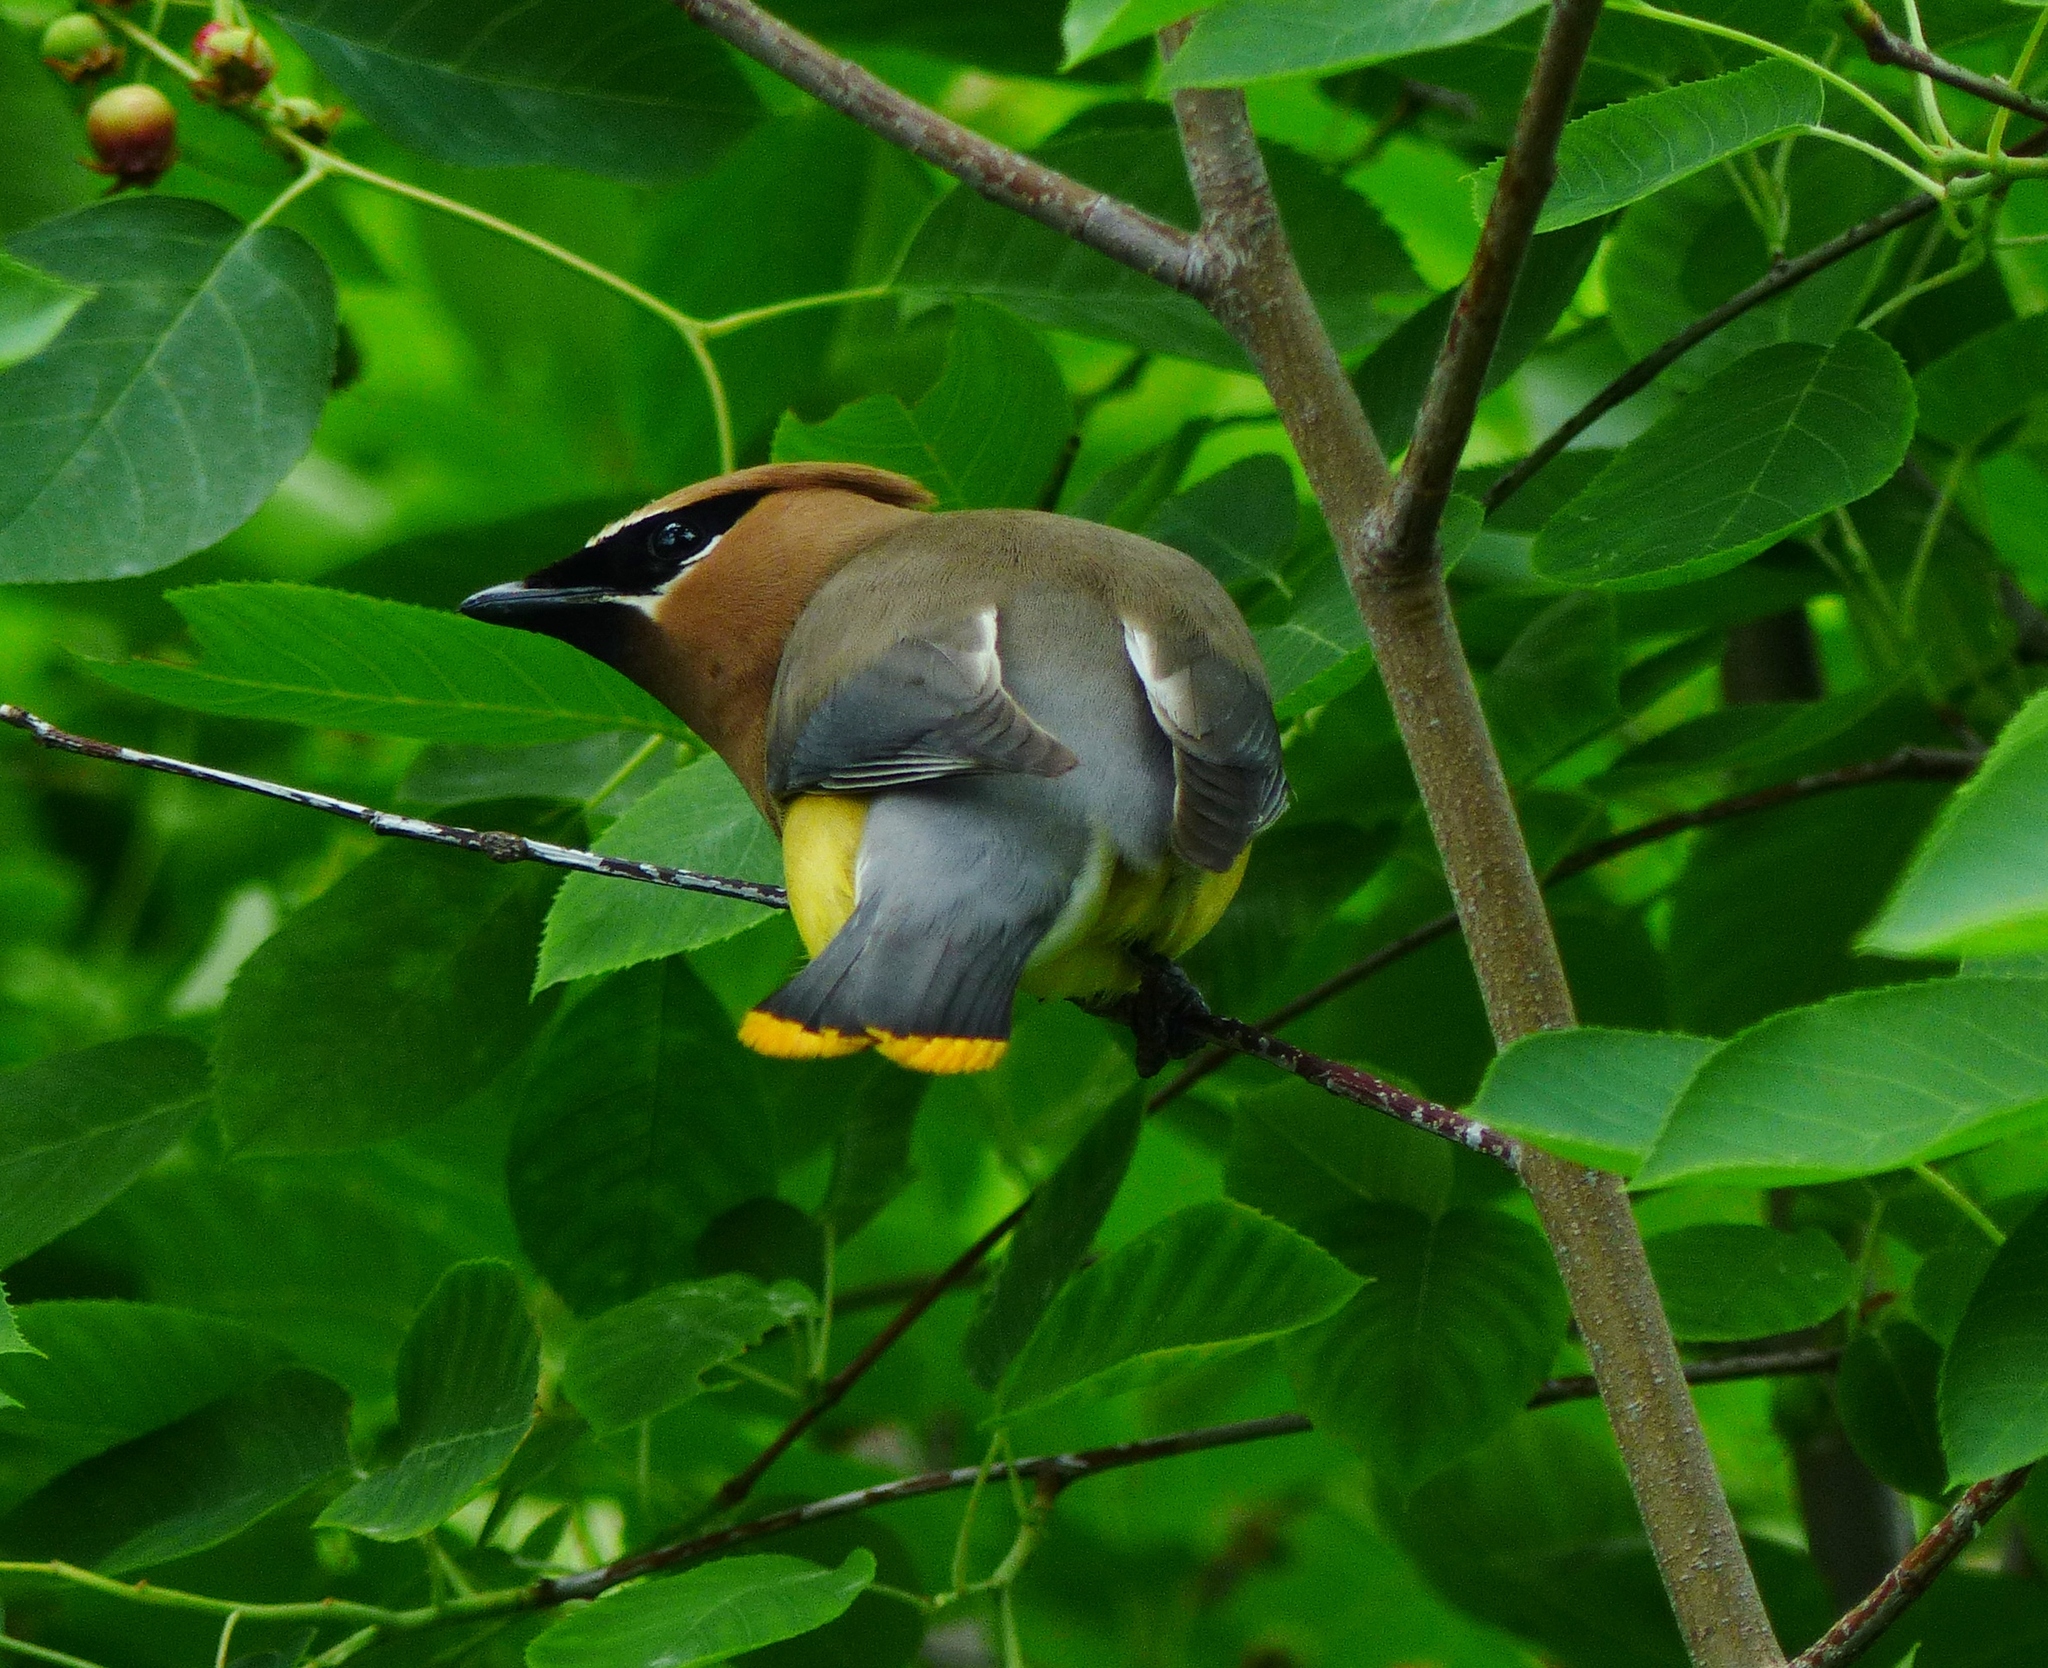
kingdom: Animalia
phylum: Chordata
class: Aves
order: Passeriformes
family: Bombycillidae
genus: Bombycilla
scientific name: Bombycilla cedrorum
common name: Cedar waxwing
